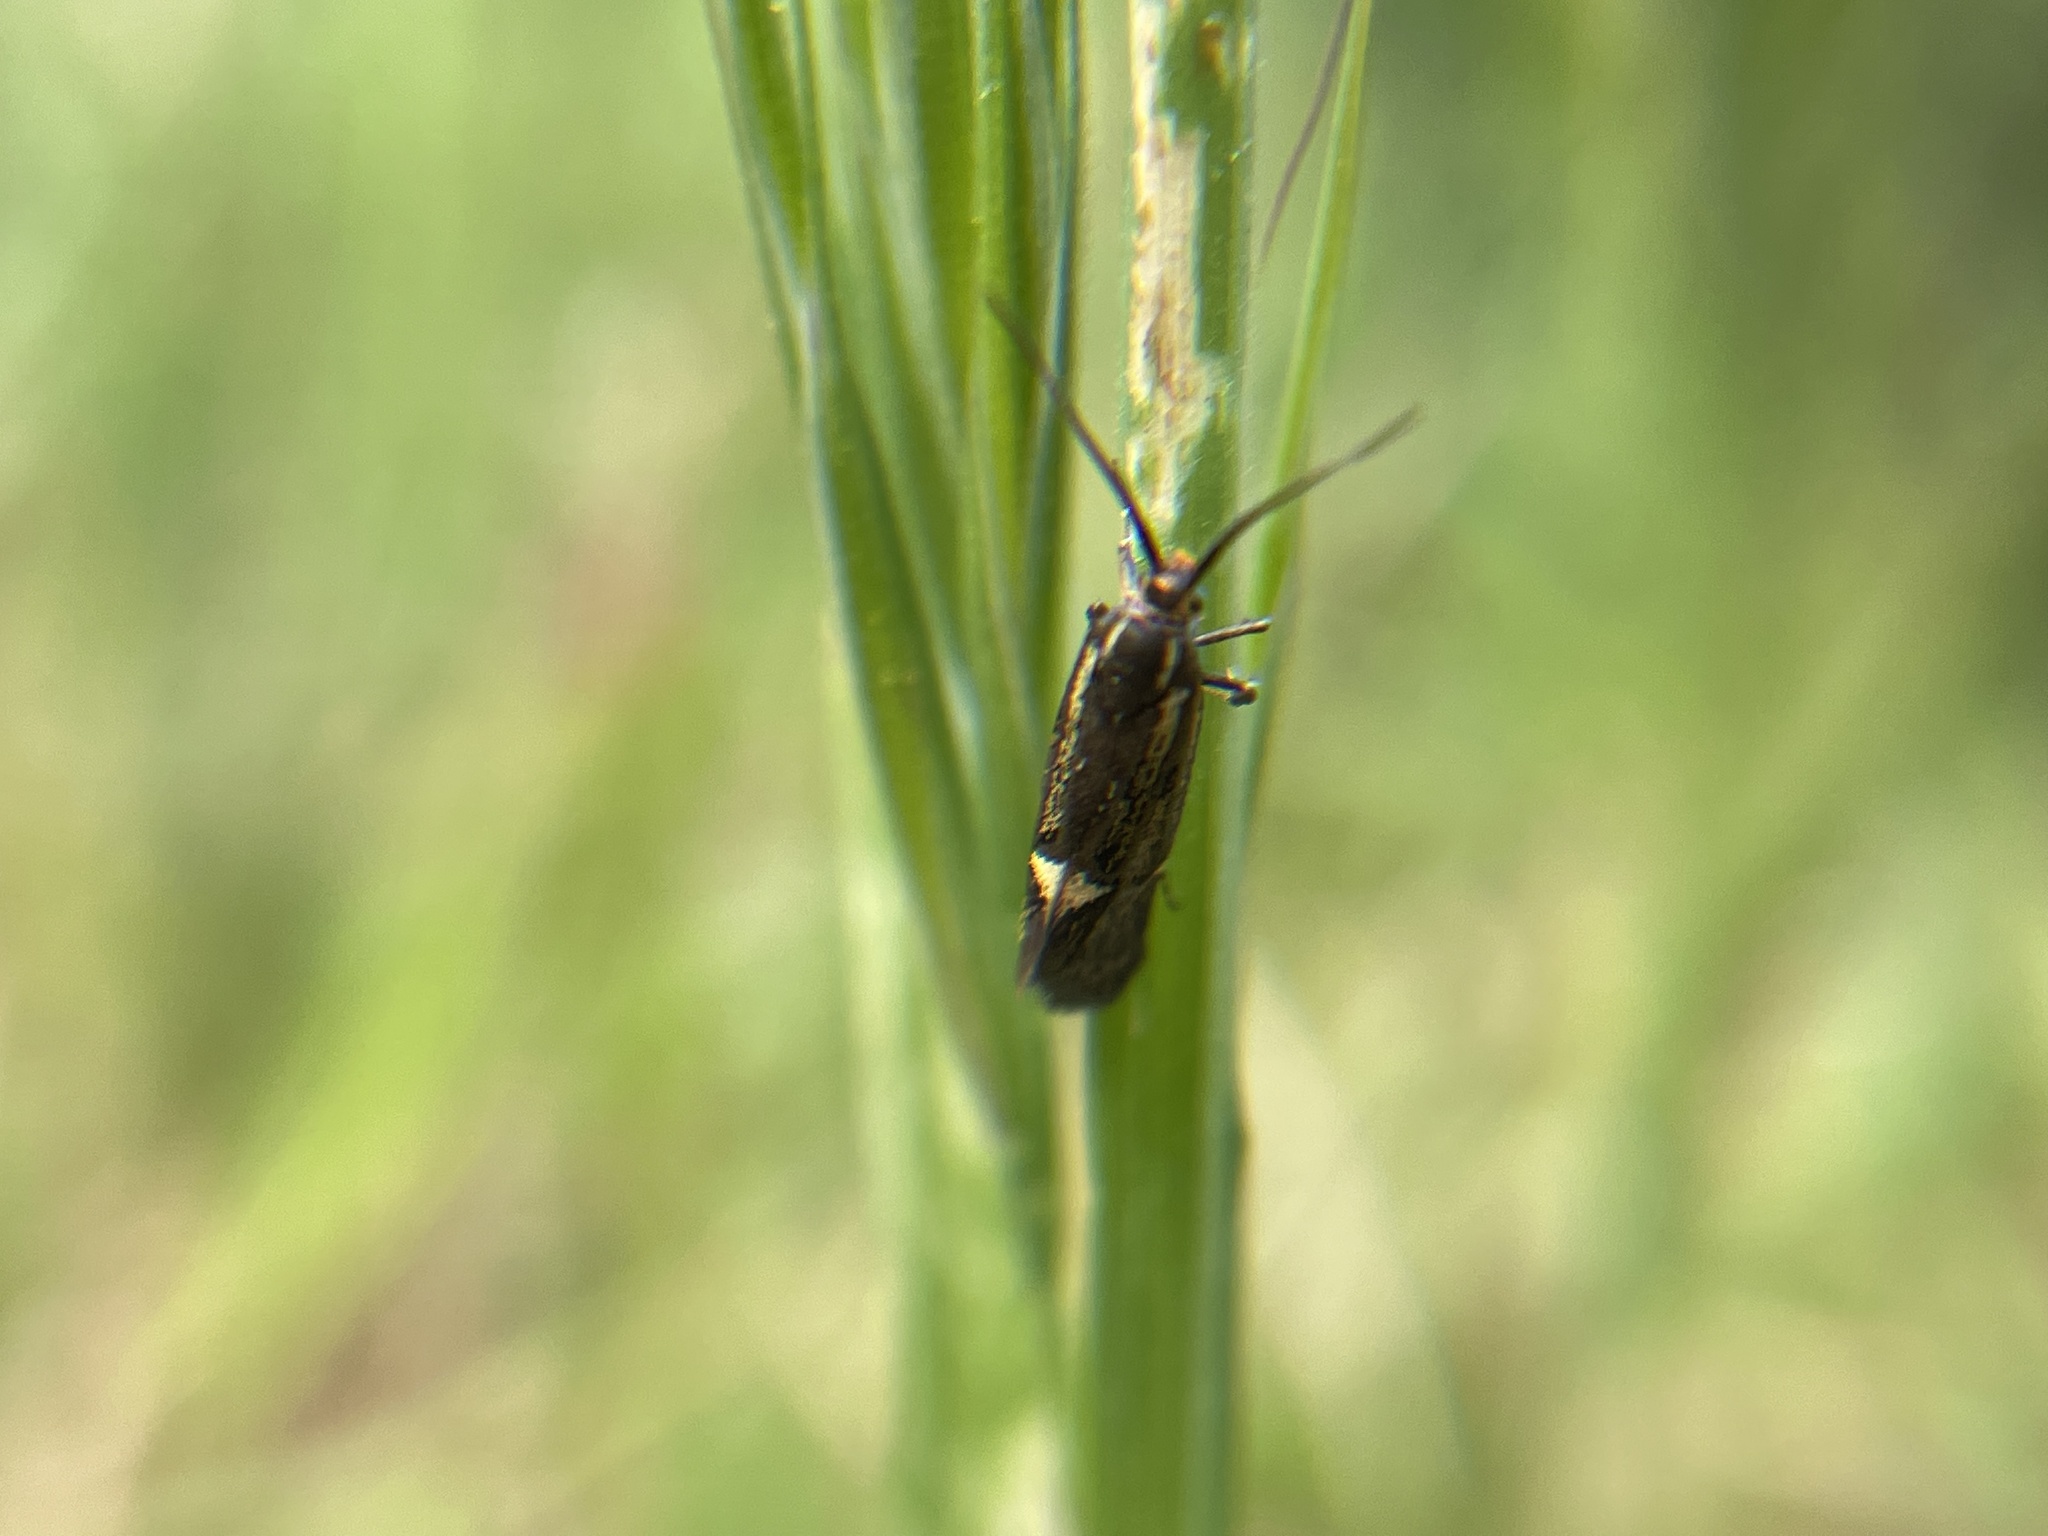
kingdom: Animalia
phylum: Arthropoda
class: Insecta
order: Lepidoptera
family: Oecophoridae
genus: Dafa
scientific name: Dafa Esperia sulphurella
